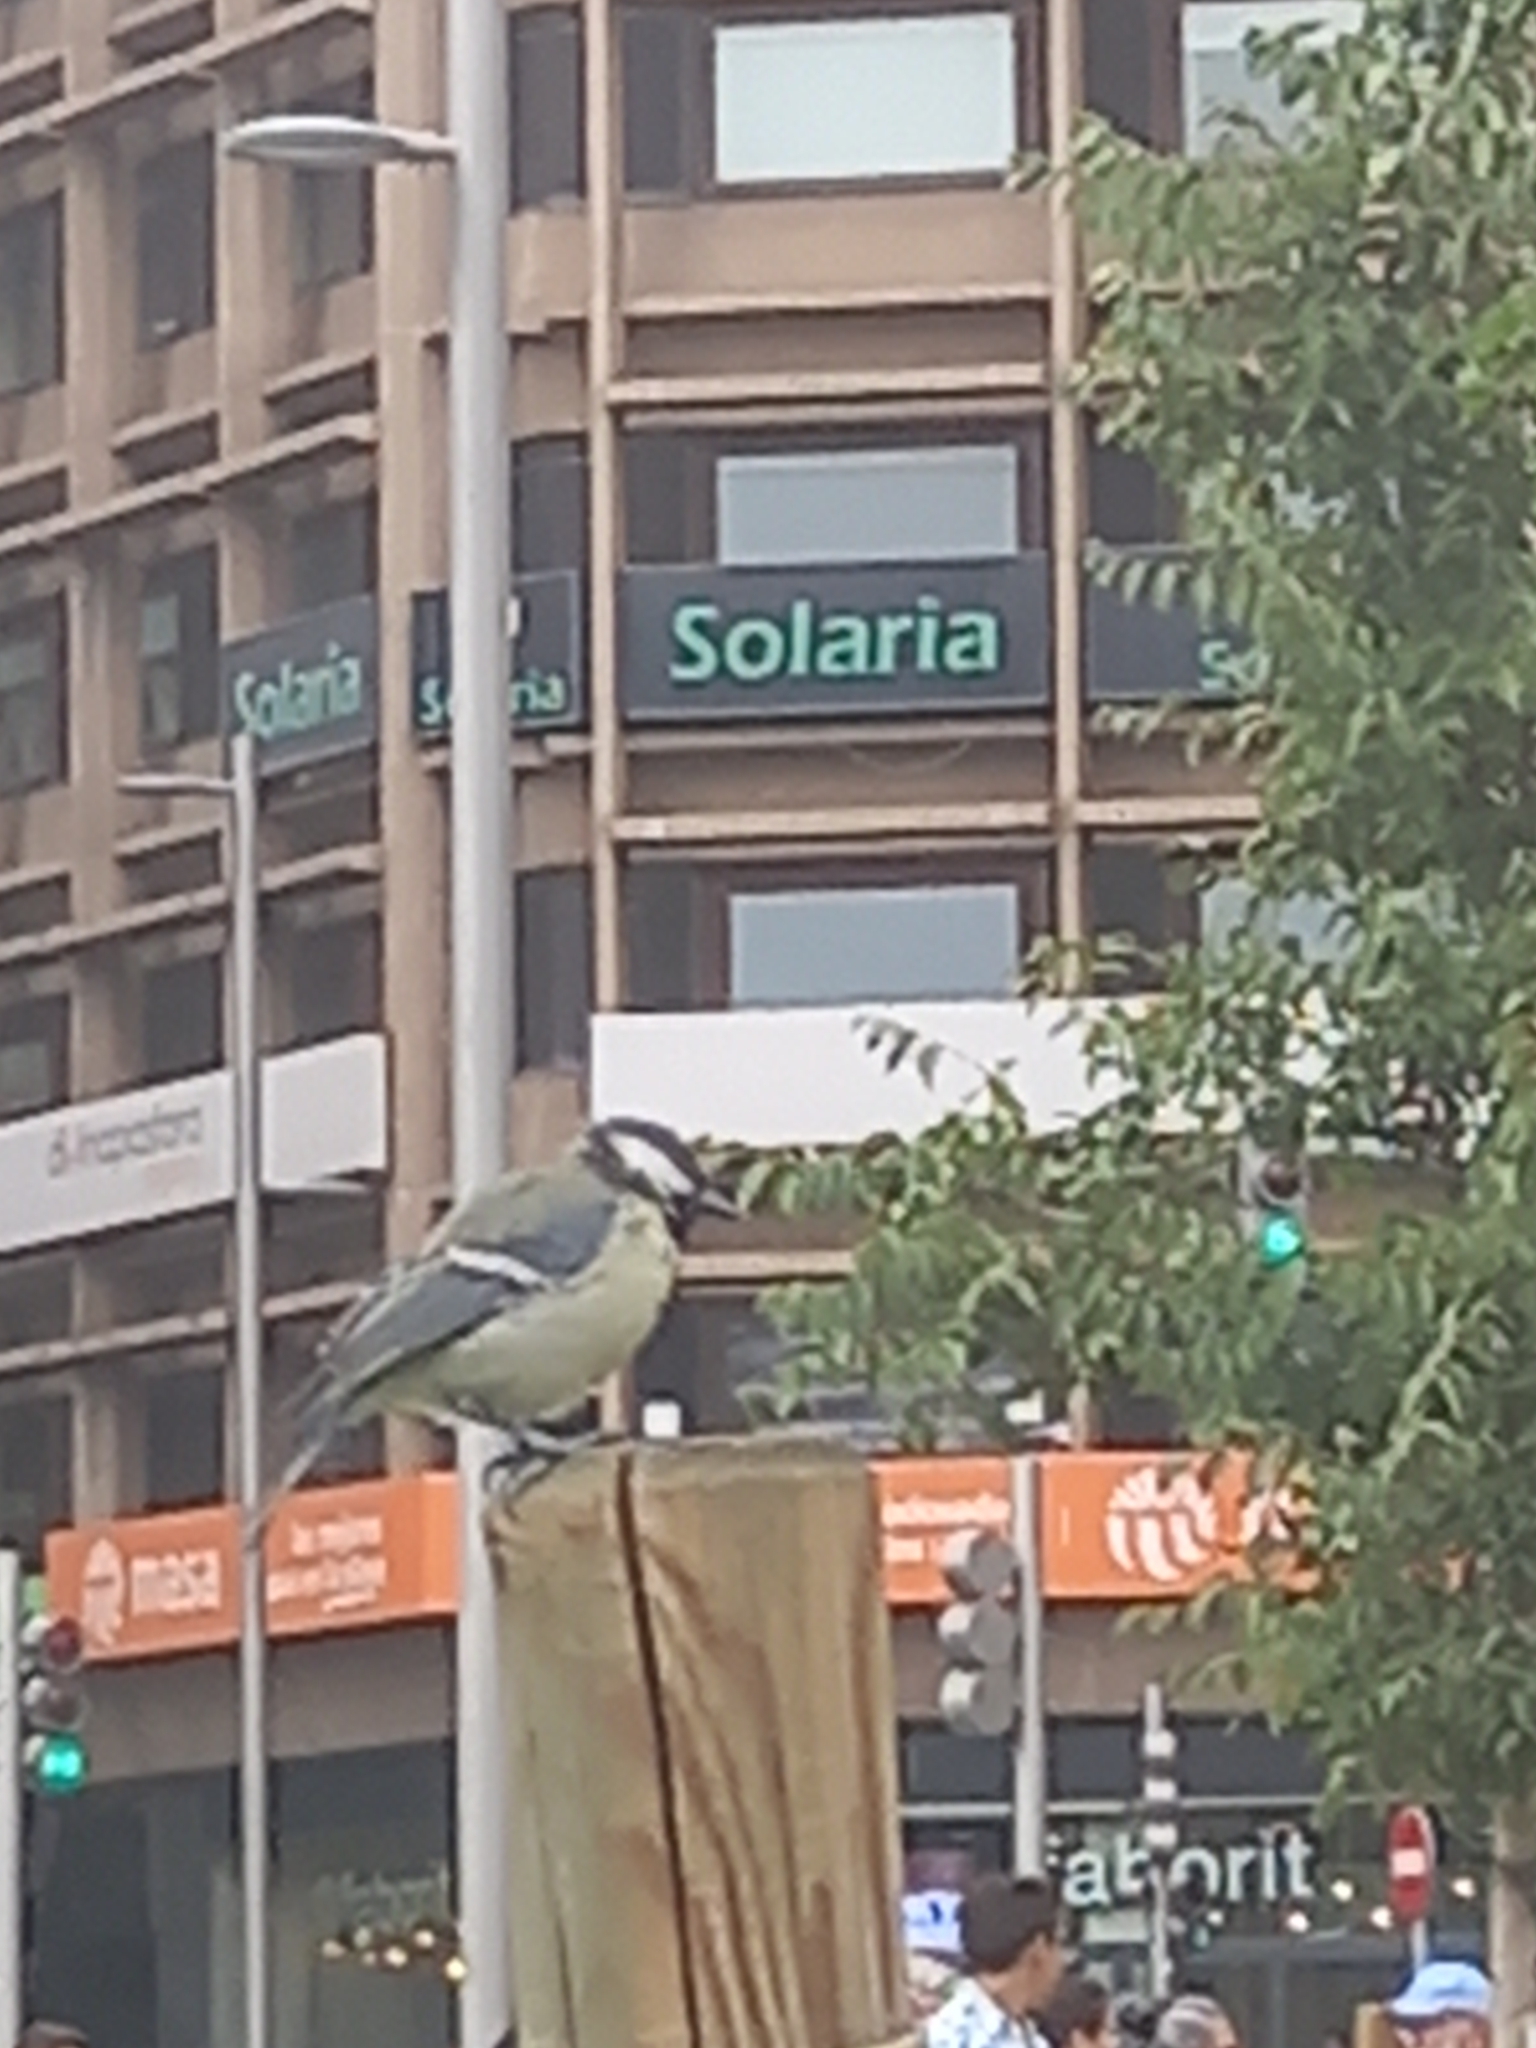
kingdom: Animalia
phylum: Chordata
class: Aves
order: Passeriformes
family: Paridae
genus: Parus
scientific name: Parus major
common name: Great tit
